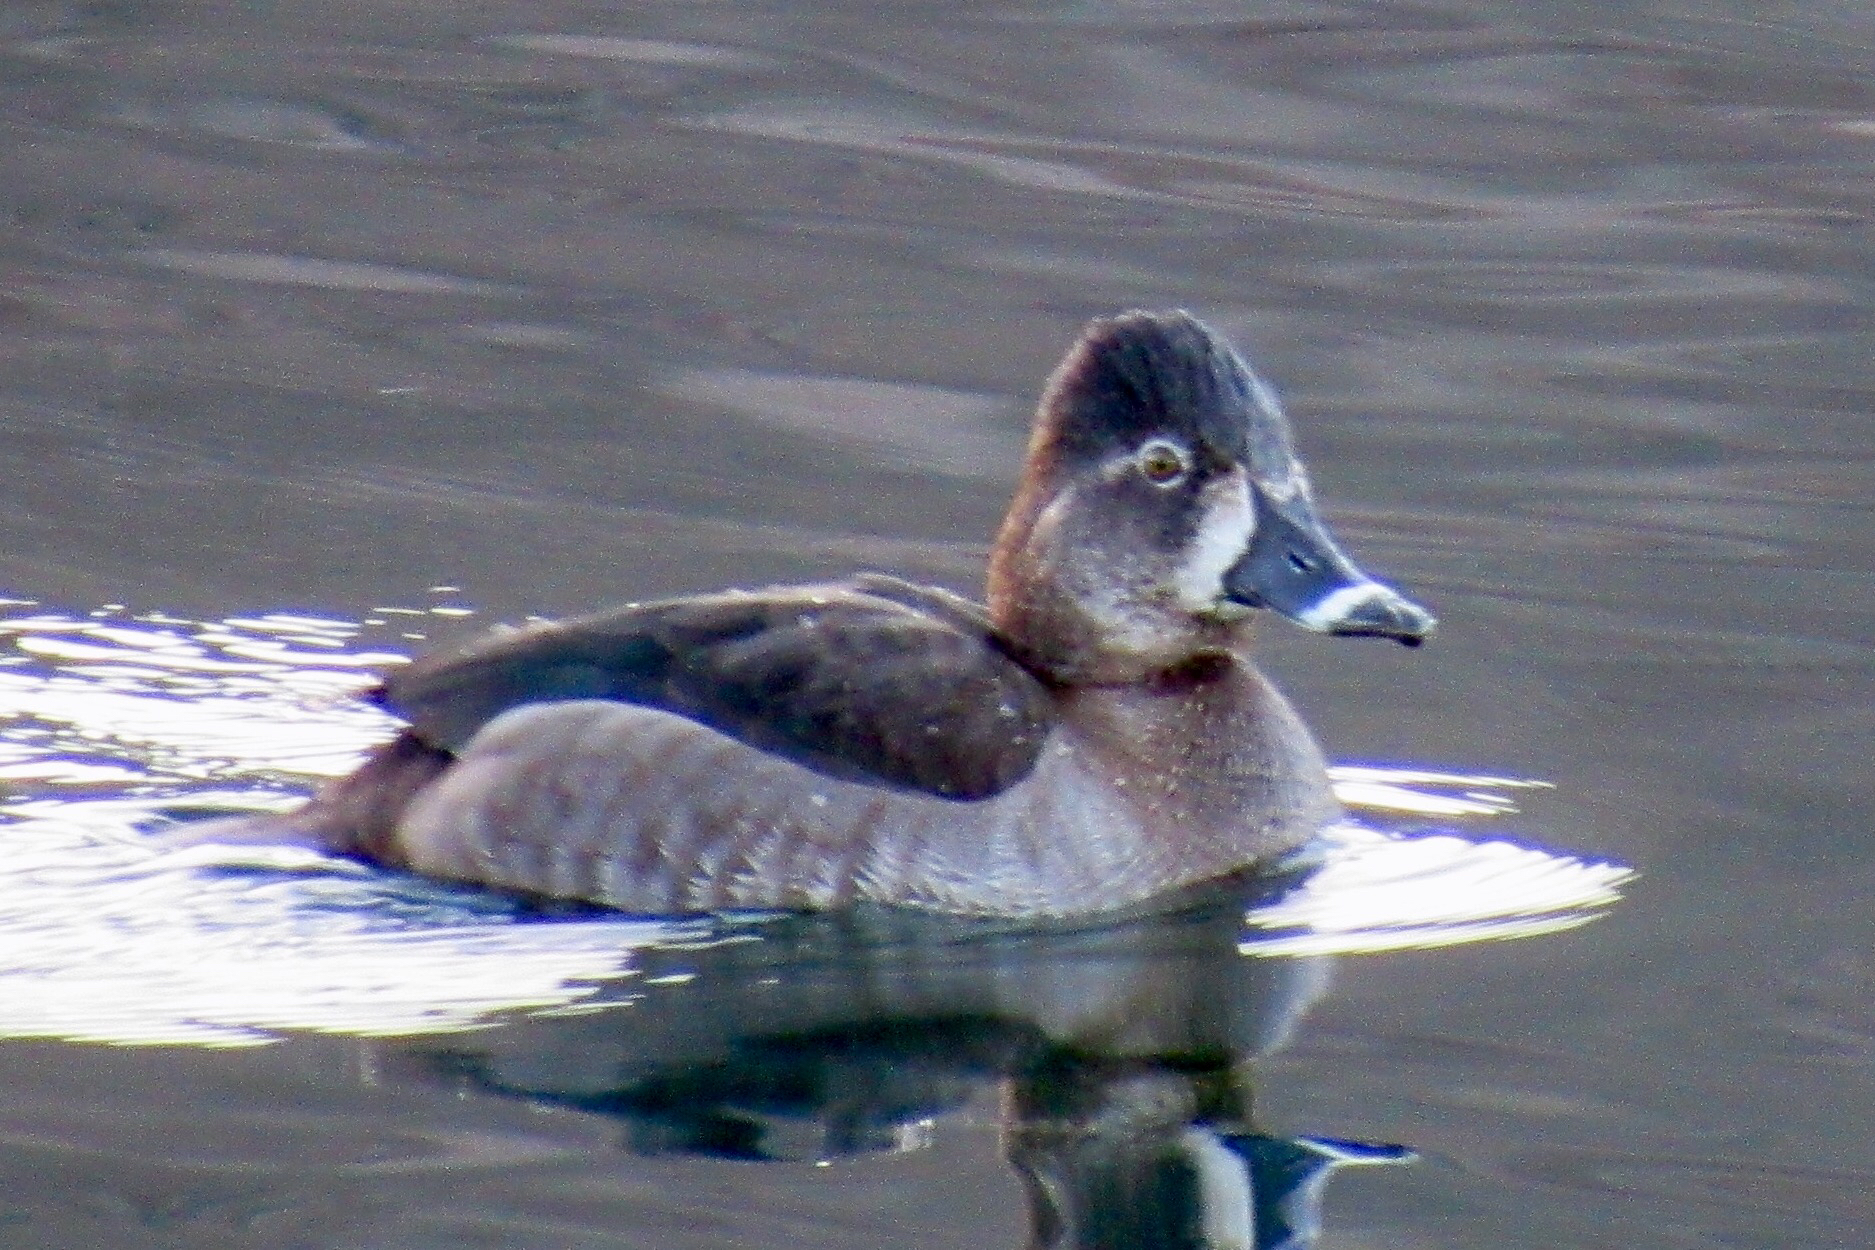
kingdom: Animalia
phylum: Chordata
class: Aves
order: Anseriformes
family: Anatidae
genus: Aythya
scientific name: Aythya collaris
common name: Ring-necked duck
